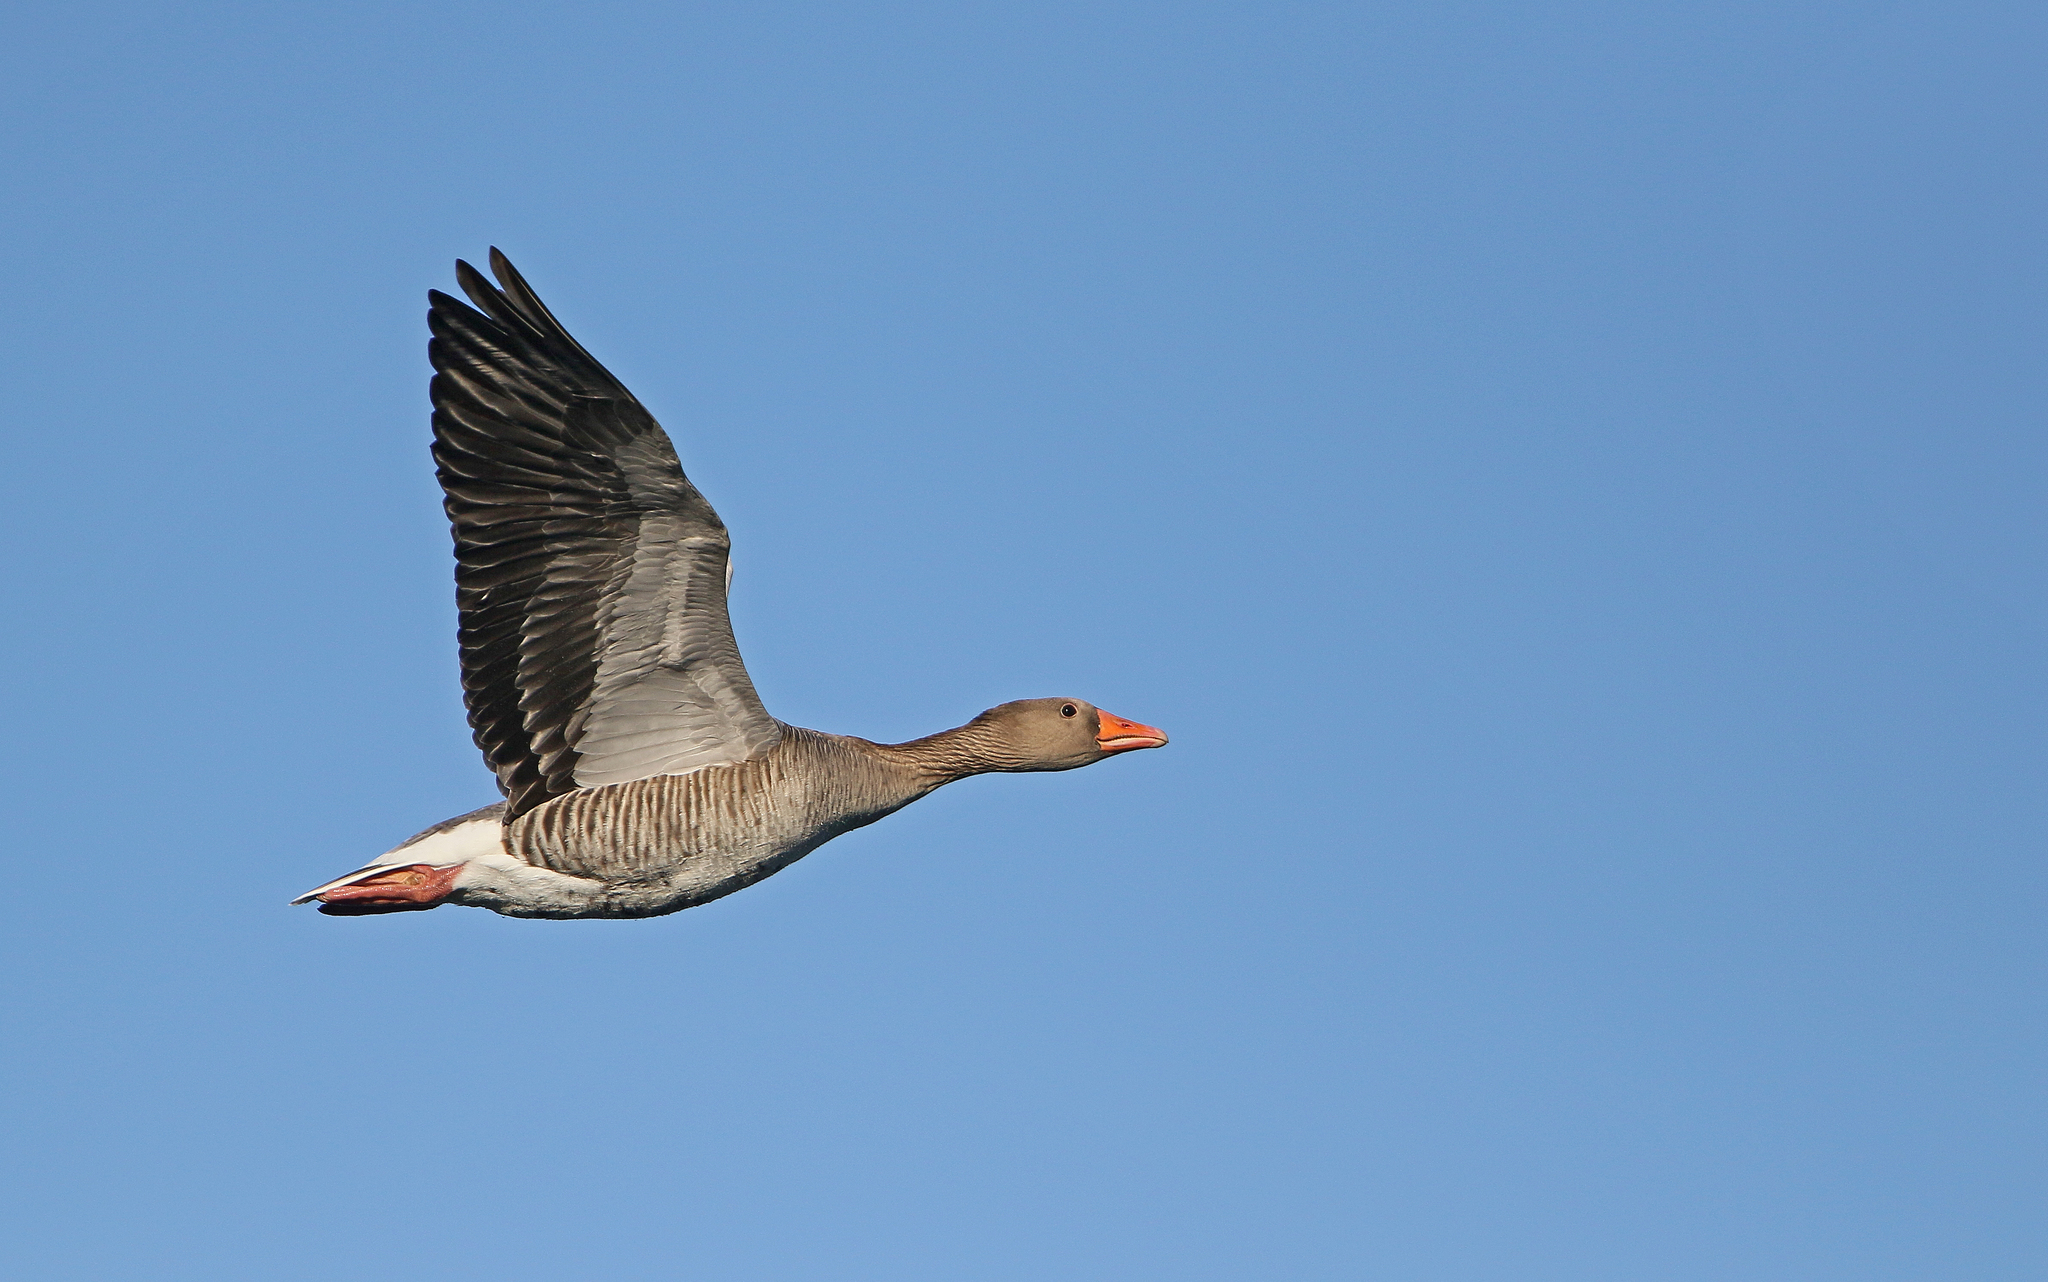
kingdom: Animalia
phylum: Chordata
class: Aves
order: Anseriformes
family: Anatidae
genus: Anser
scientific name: Anser anser
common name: Greylag goose
